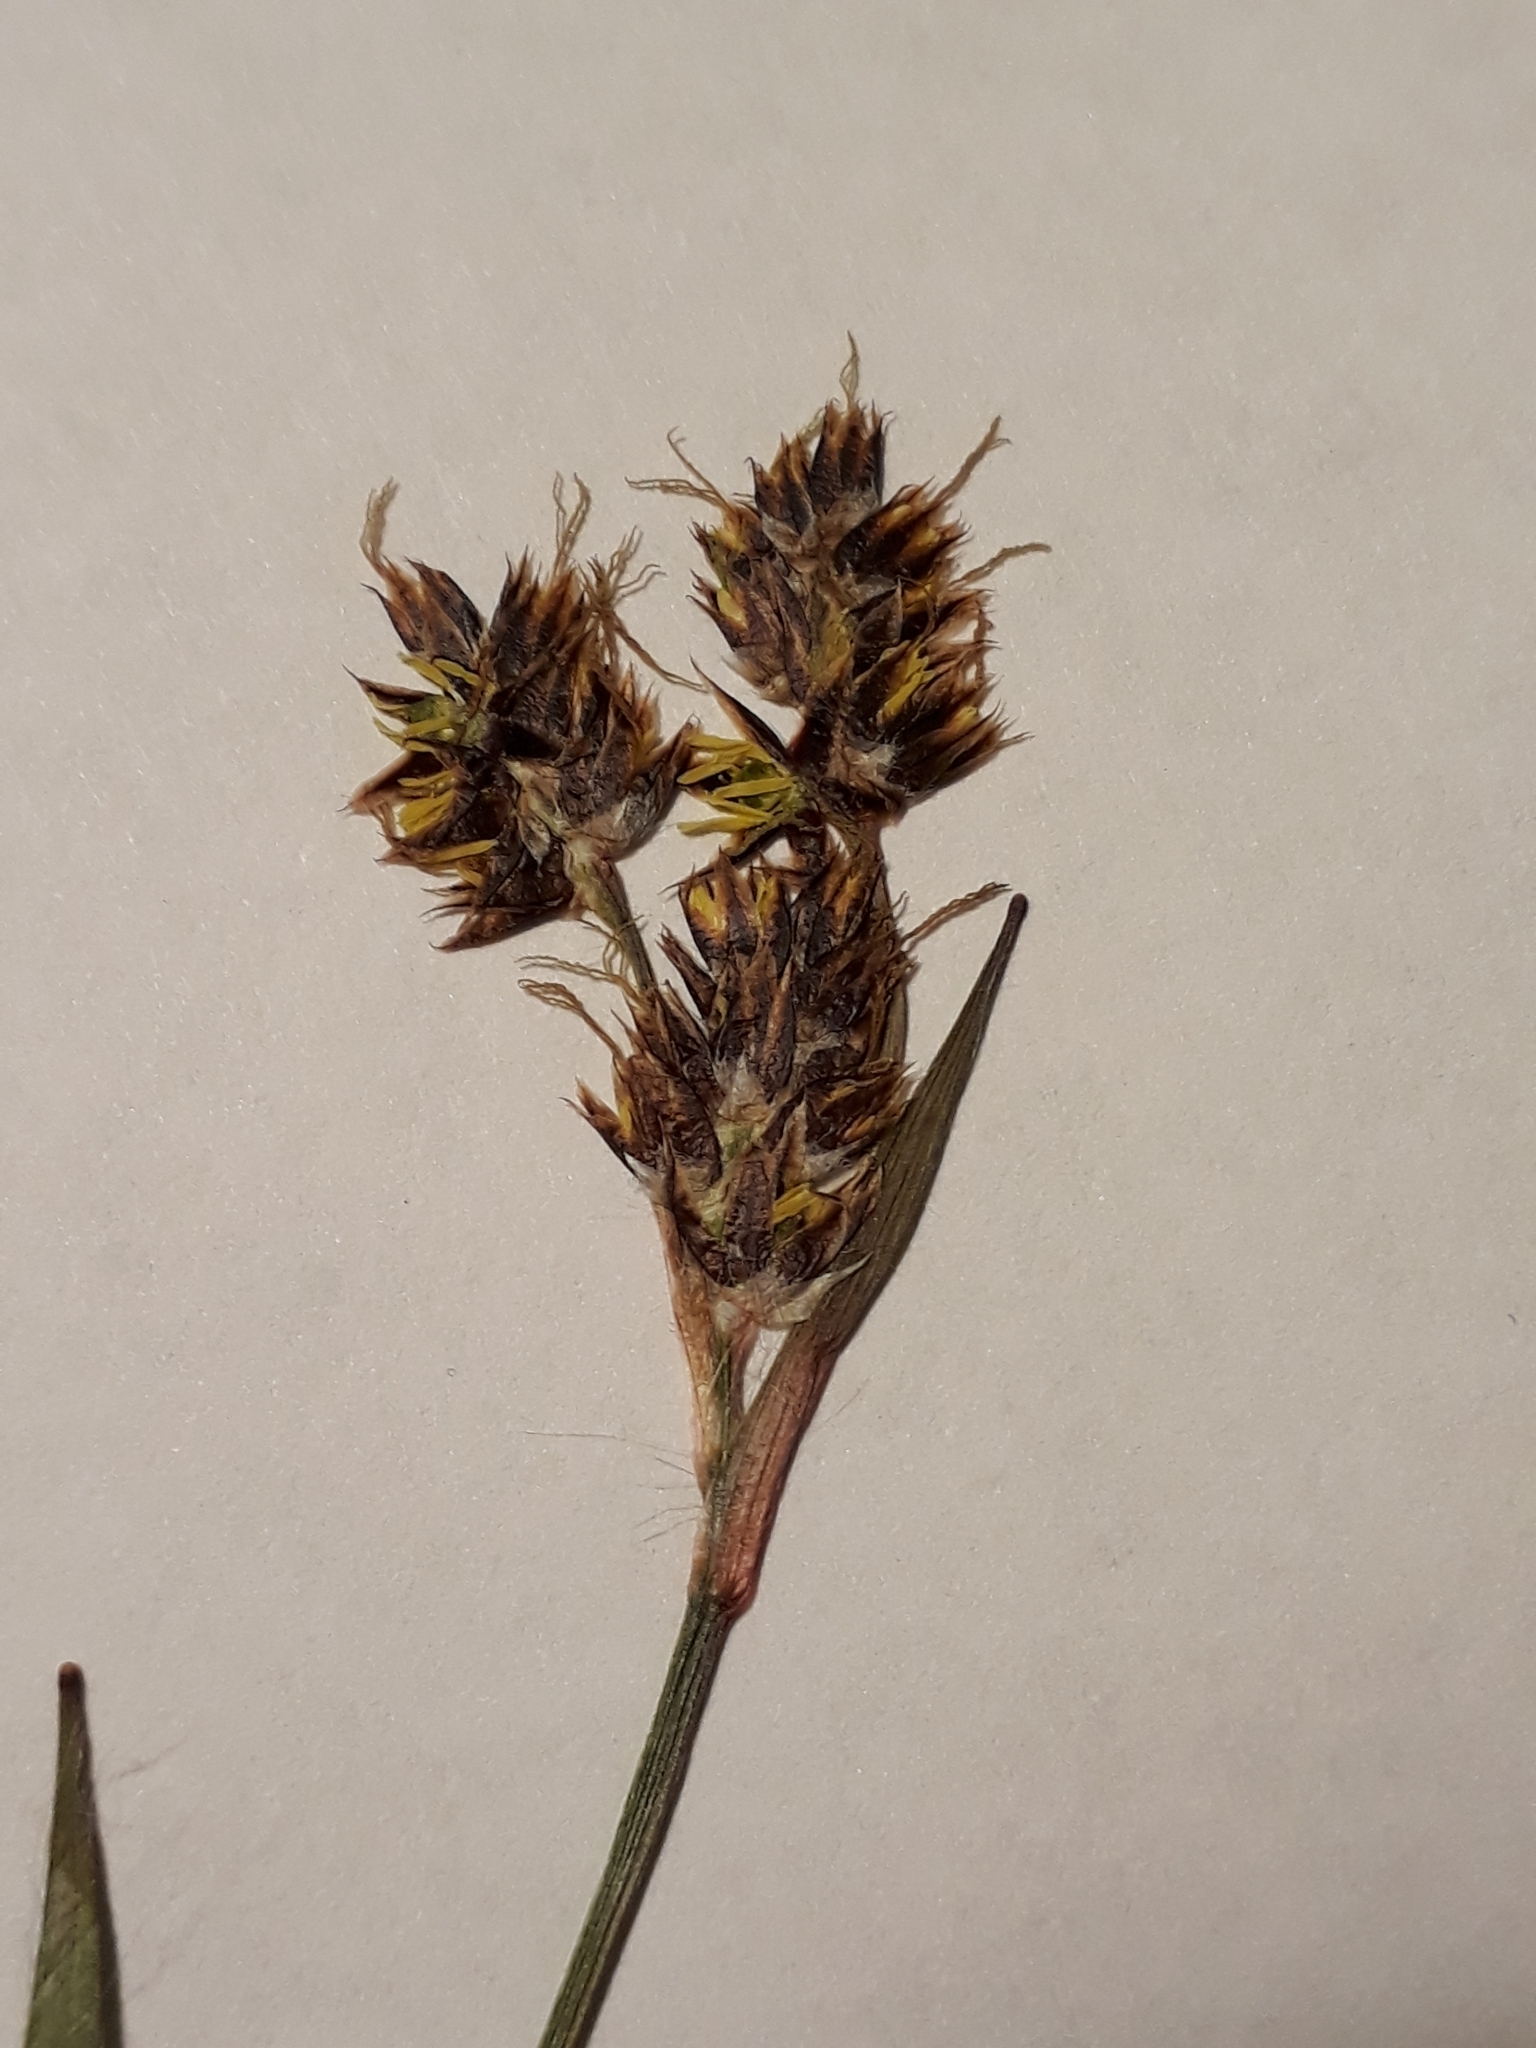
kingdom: Plantae
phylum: Tracheophyta
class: Liliopsida
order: Poales
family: Juncaceae
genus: Luzula
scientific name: Luzula campestris
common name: Field wood-rush
